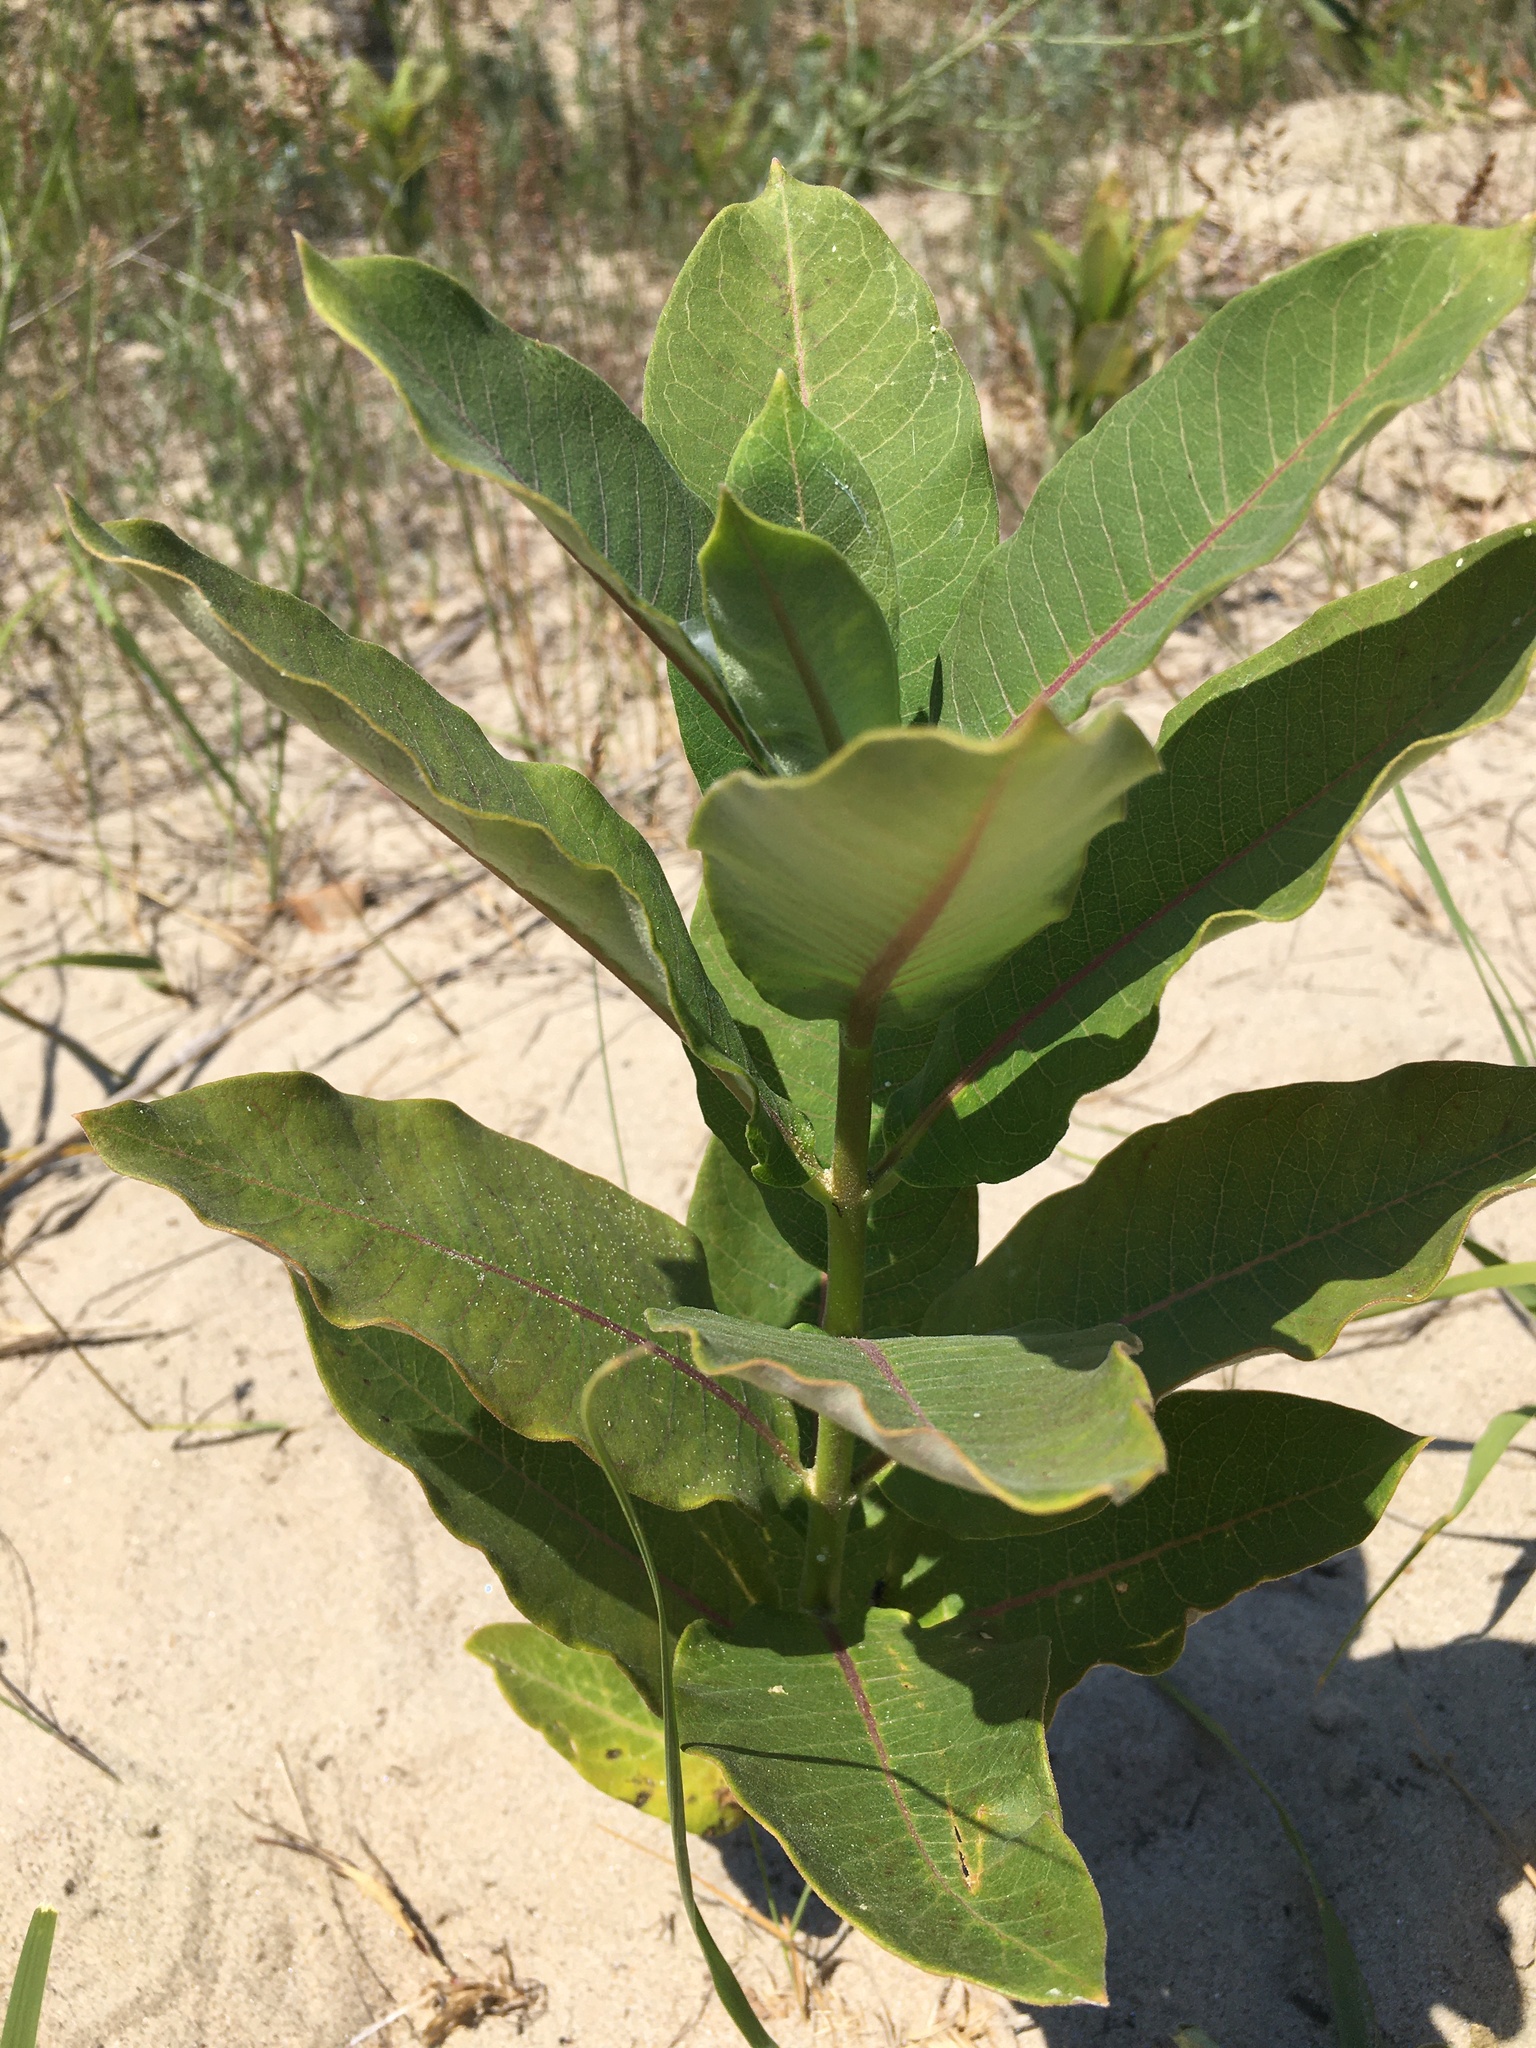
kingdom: Plantae
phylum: Tracheophyta
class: Magnoliopsida
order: Gentianales
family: Apocynaceae
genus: Asclepias
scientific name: Asclepias syriaca
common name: Common milkweed
